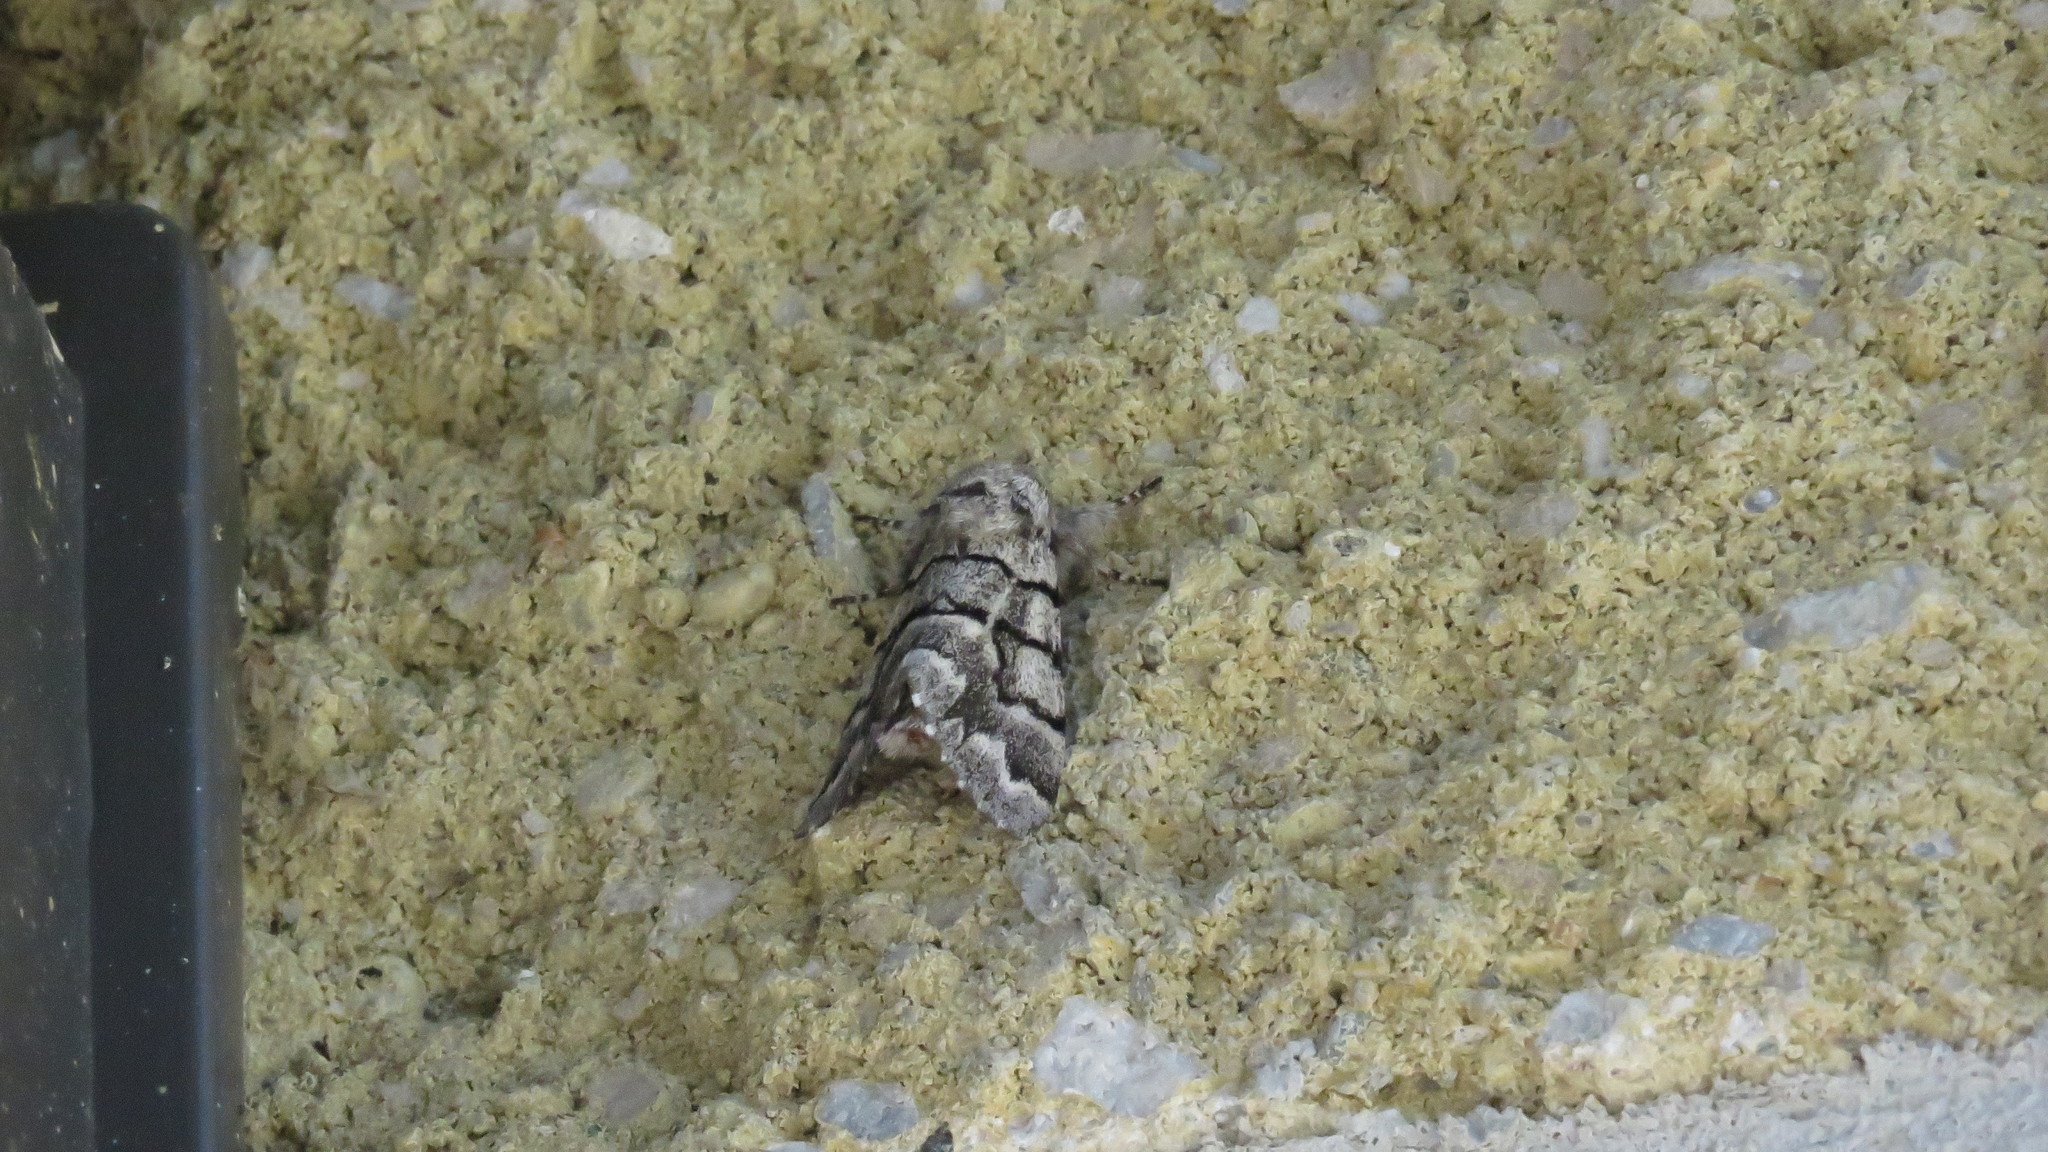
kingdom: Animalia
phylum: Arthropoda
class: Insecta
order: Lepidoptera
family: Noctuidae
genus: Panthea
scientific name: Panthea furcilla
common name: Eastern panthea moth
